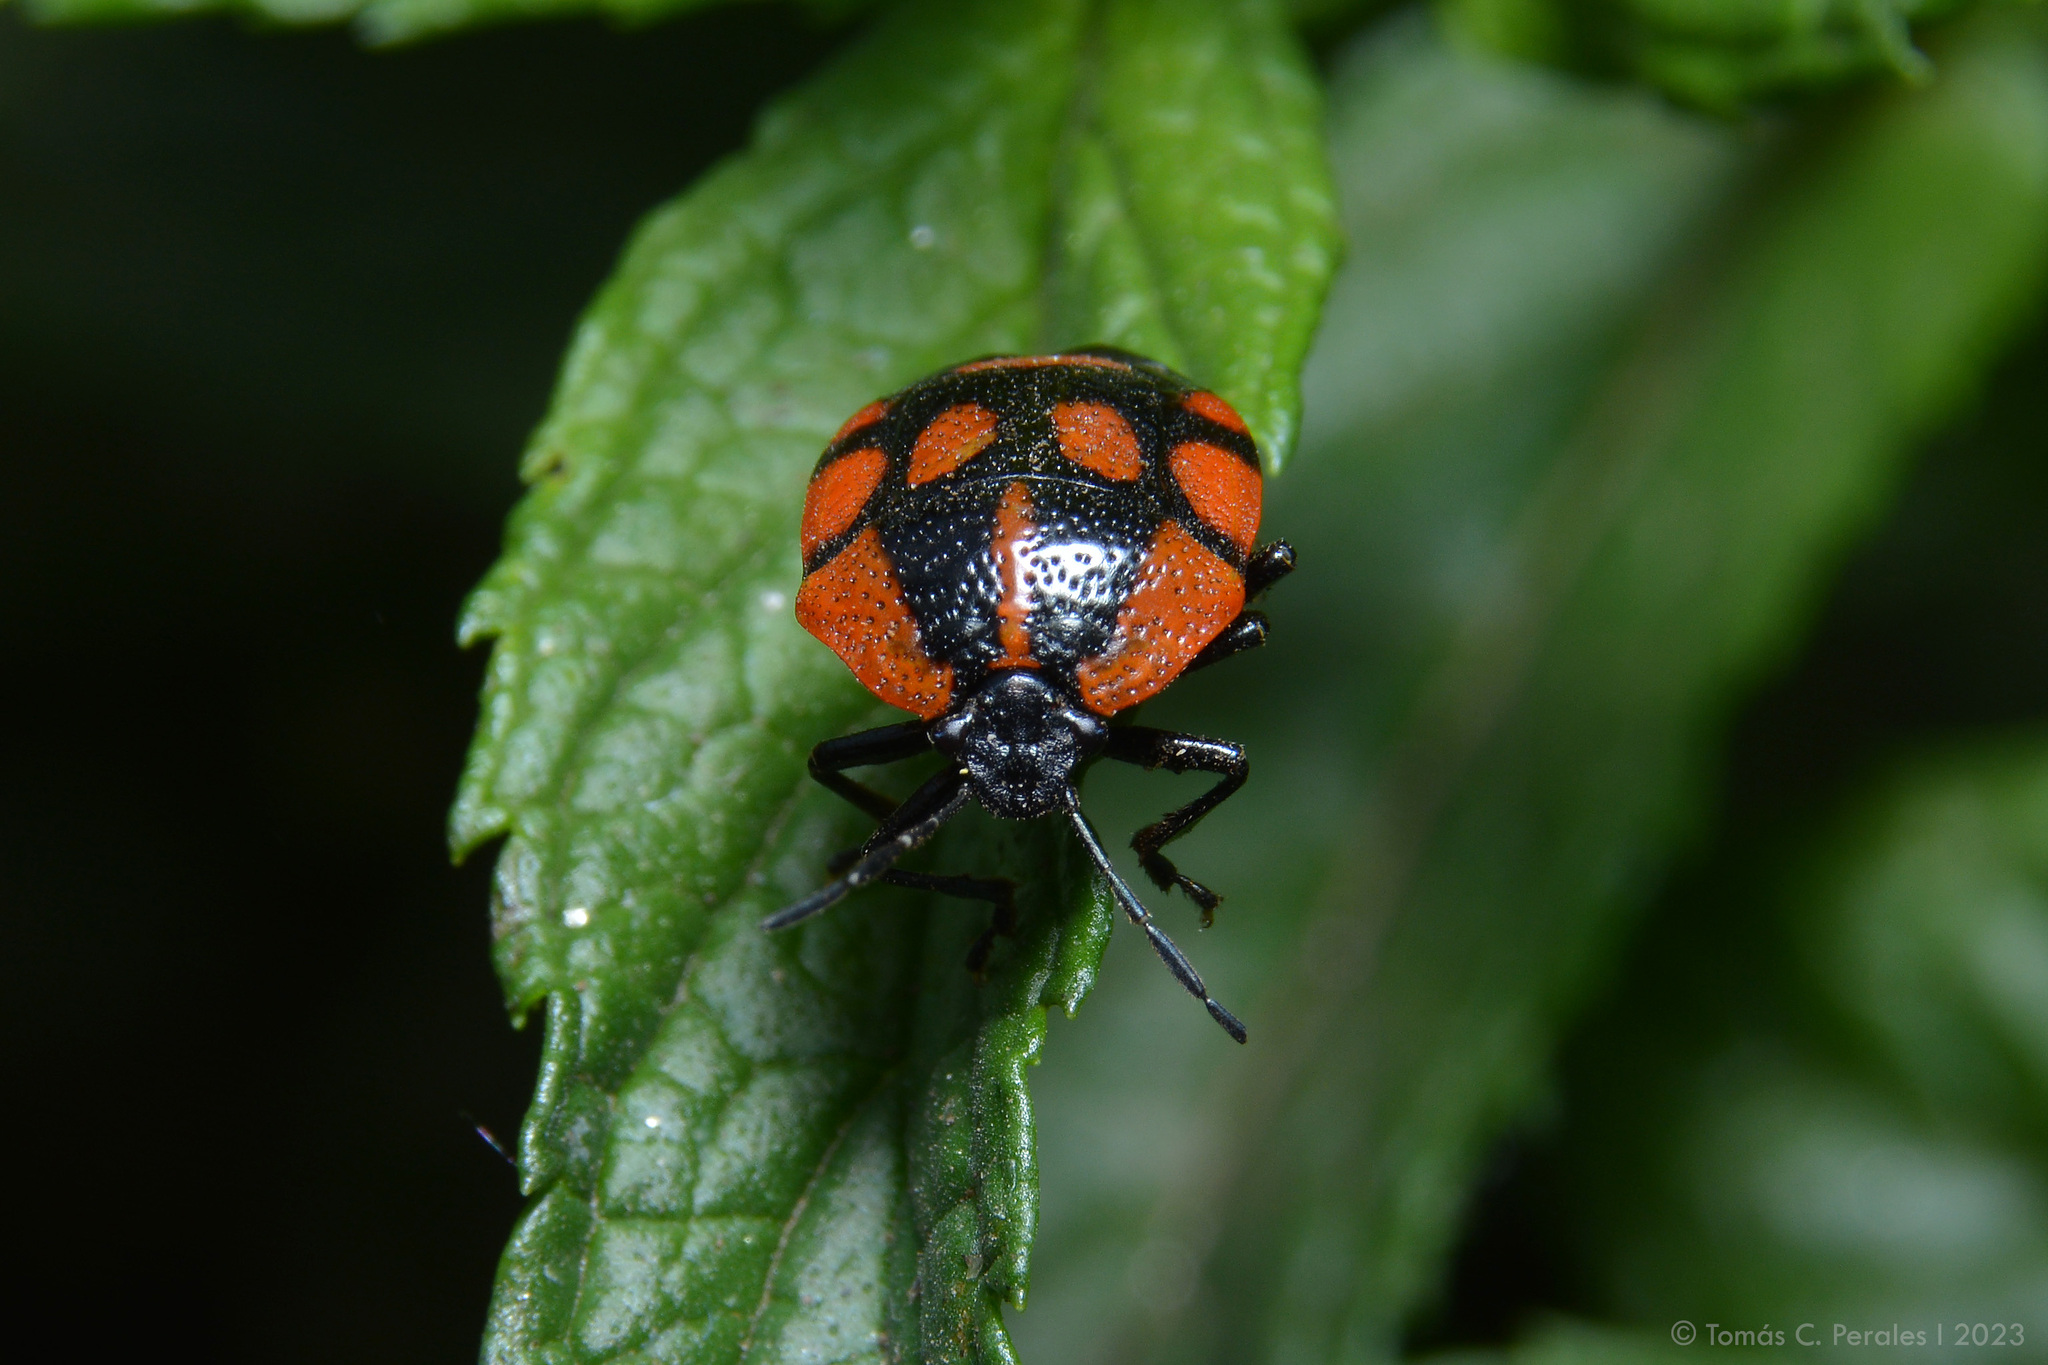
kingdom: Animalia
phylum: Arthropoda
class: Insecta
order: Hemiptera
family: Pentatomidae
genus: Stiretrus
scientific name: Stiretrus
